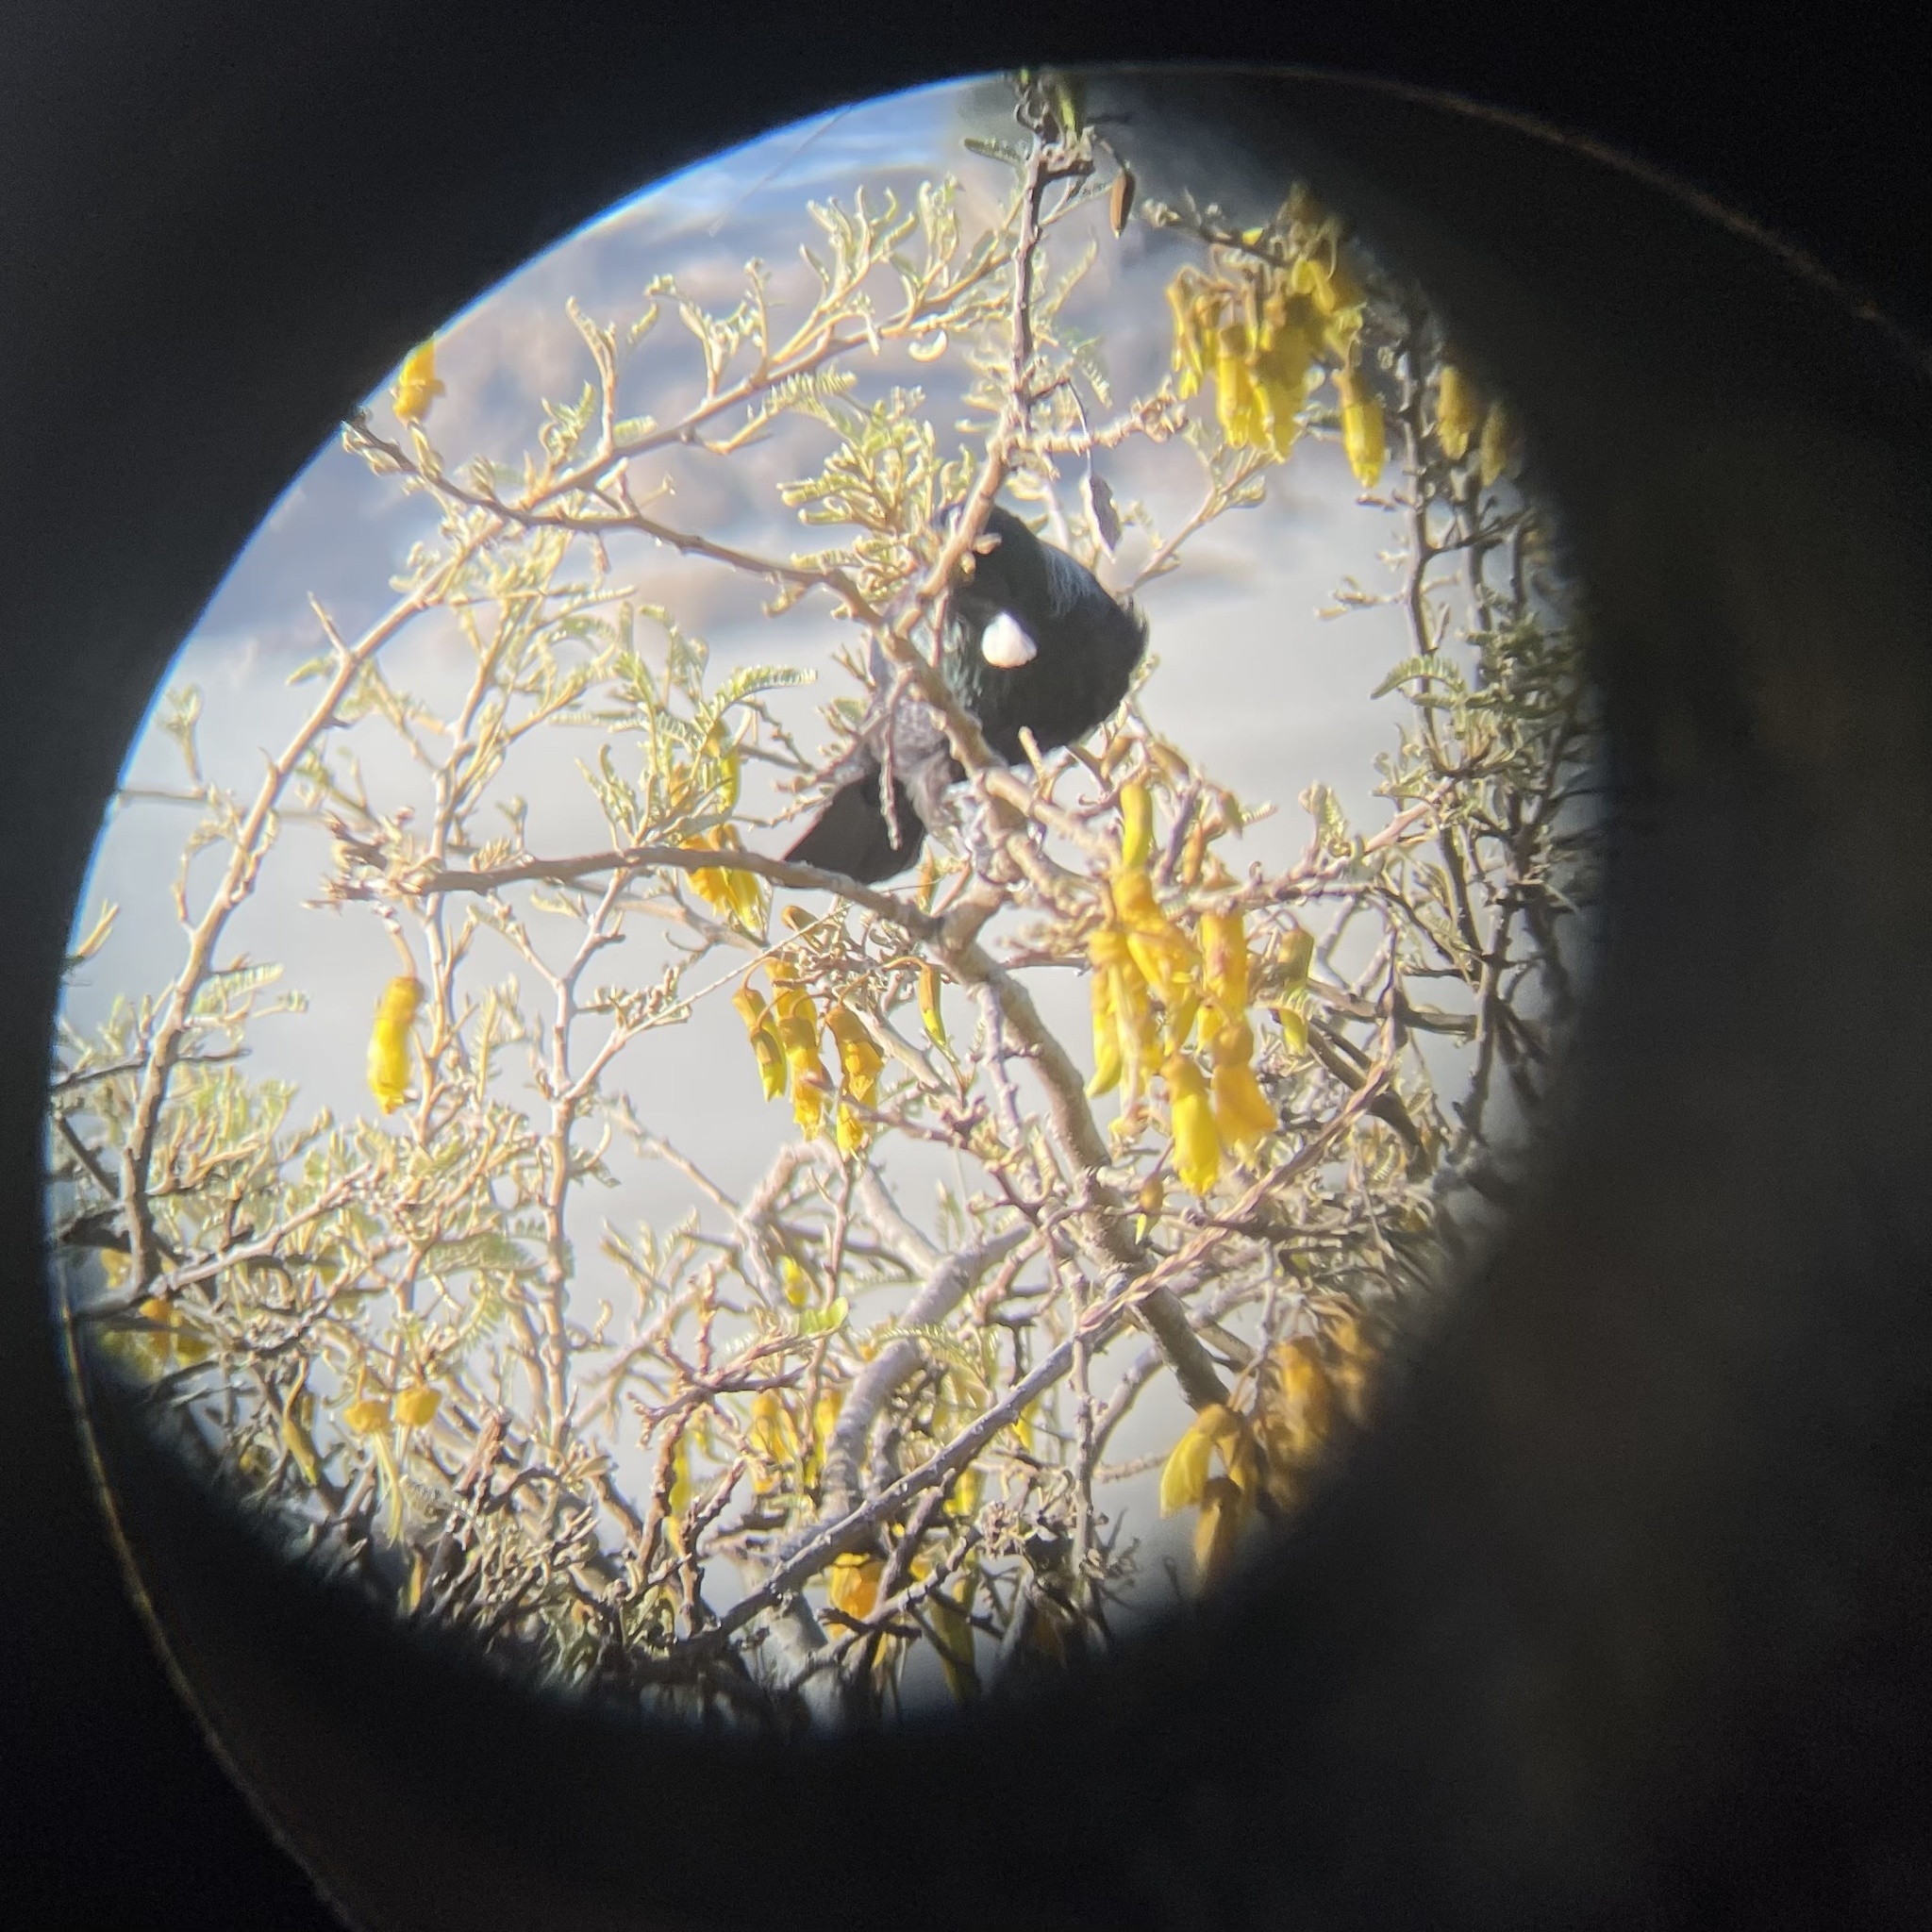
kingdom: Animalia
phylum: Chordata
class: Aves
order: Passeriformes
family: Meliphagidae
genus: Prosthemadera
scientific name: Prosthemadera novaeseelandiae
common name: Tui
